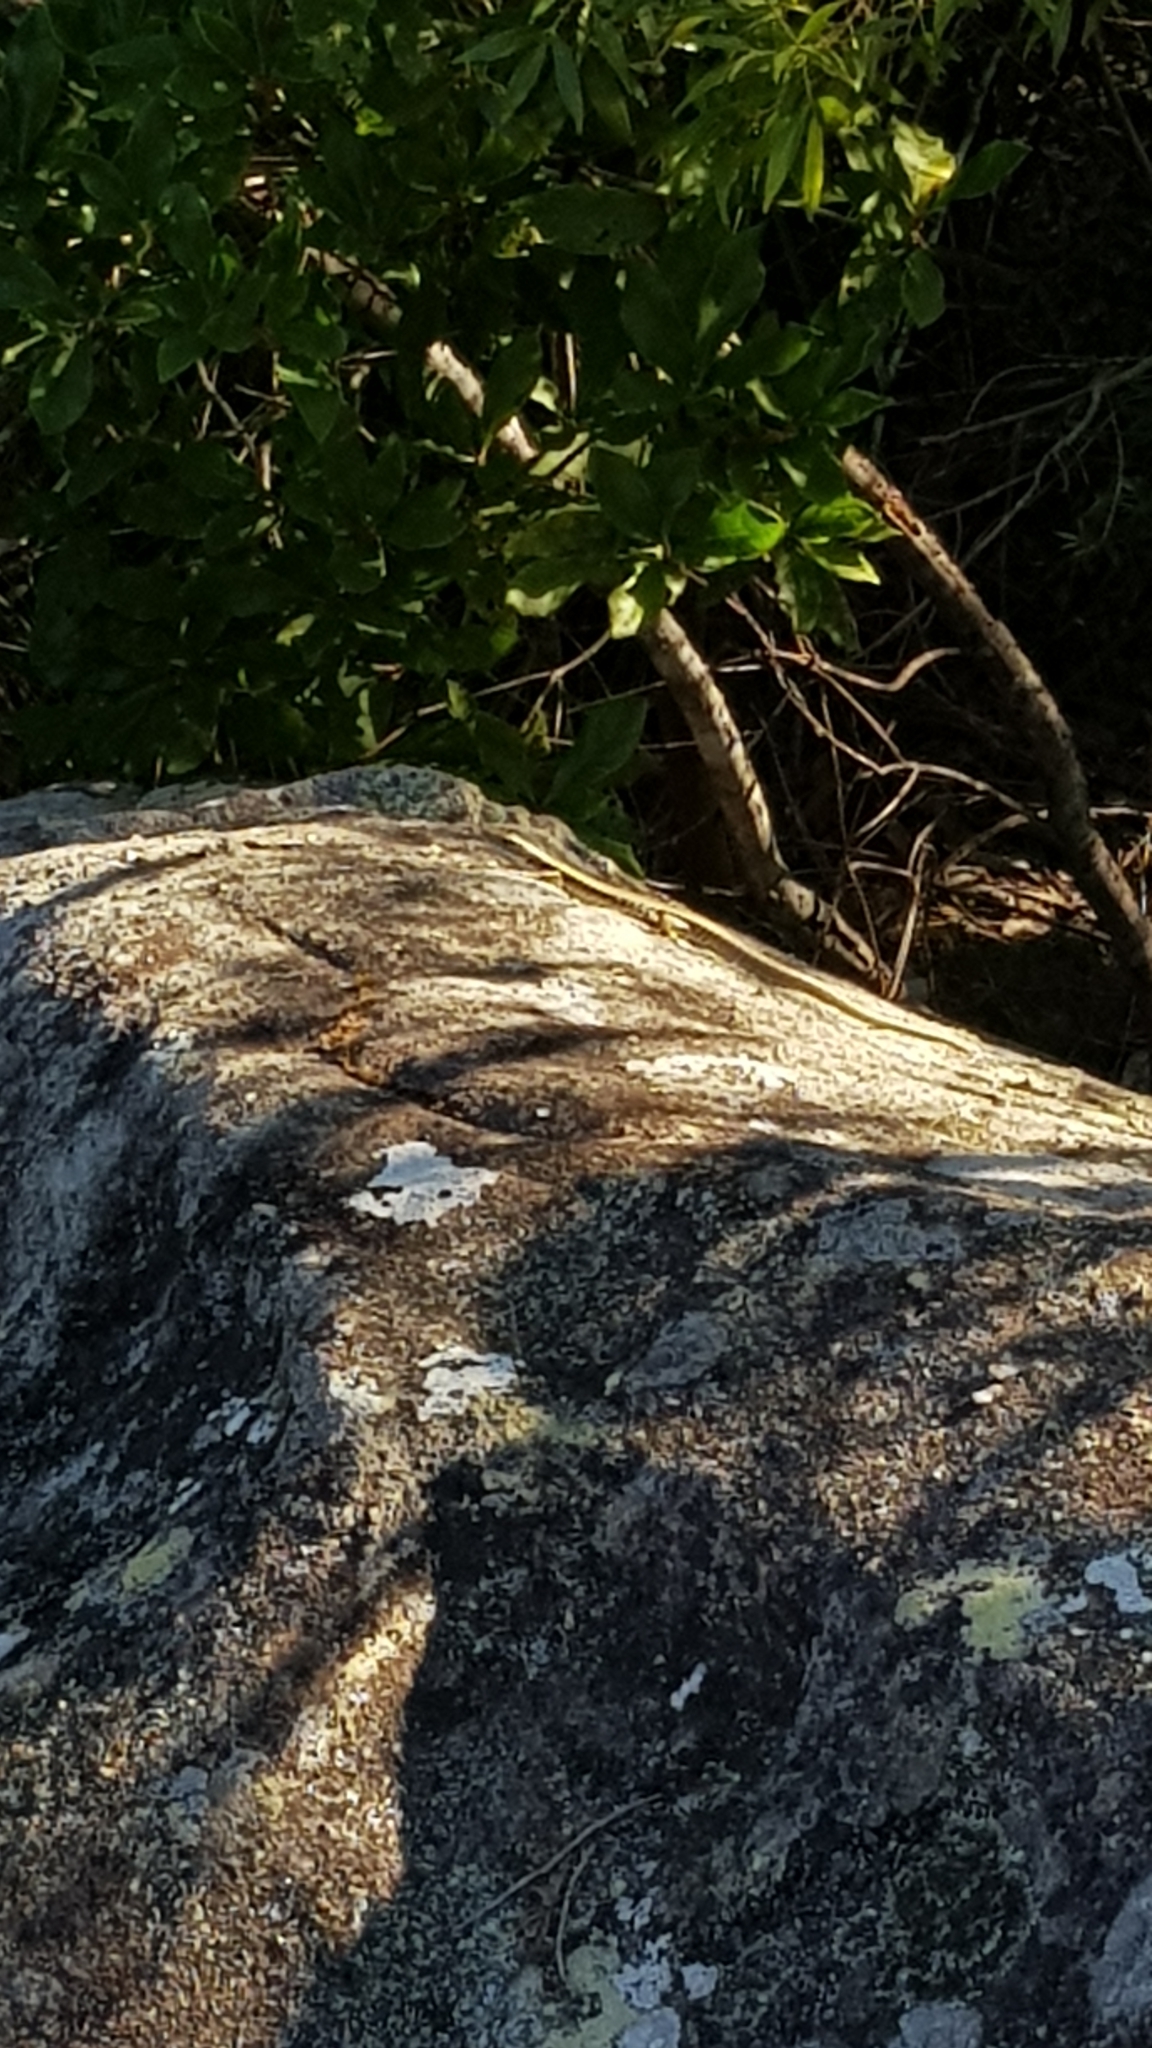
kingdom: Animalia
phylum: Chordata
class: Squamata
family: Scincidae
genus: Eulamprus
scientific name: Eulamprus quoyii
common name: Eastern water skink
